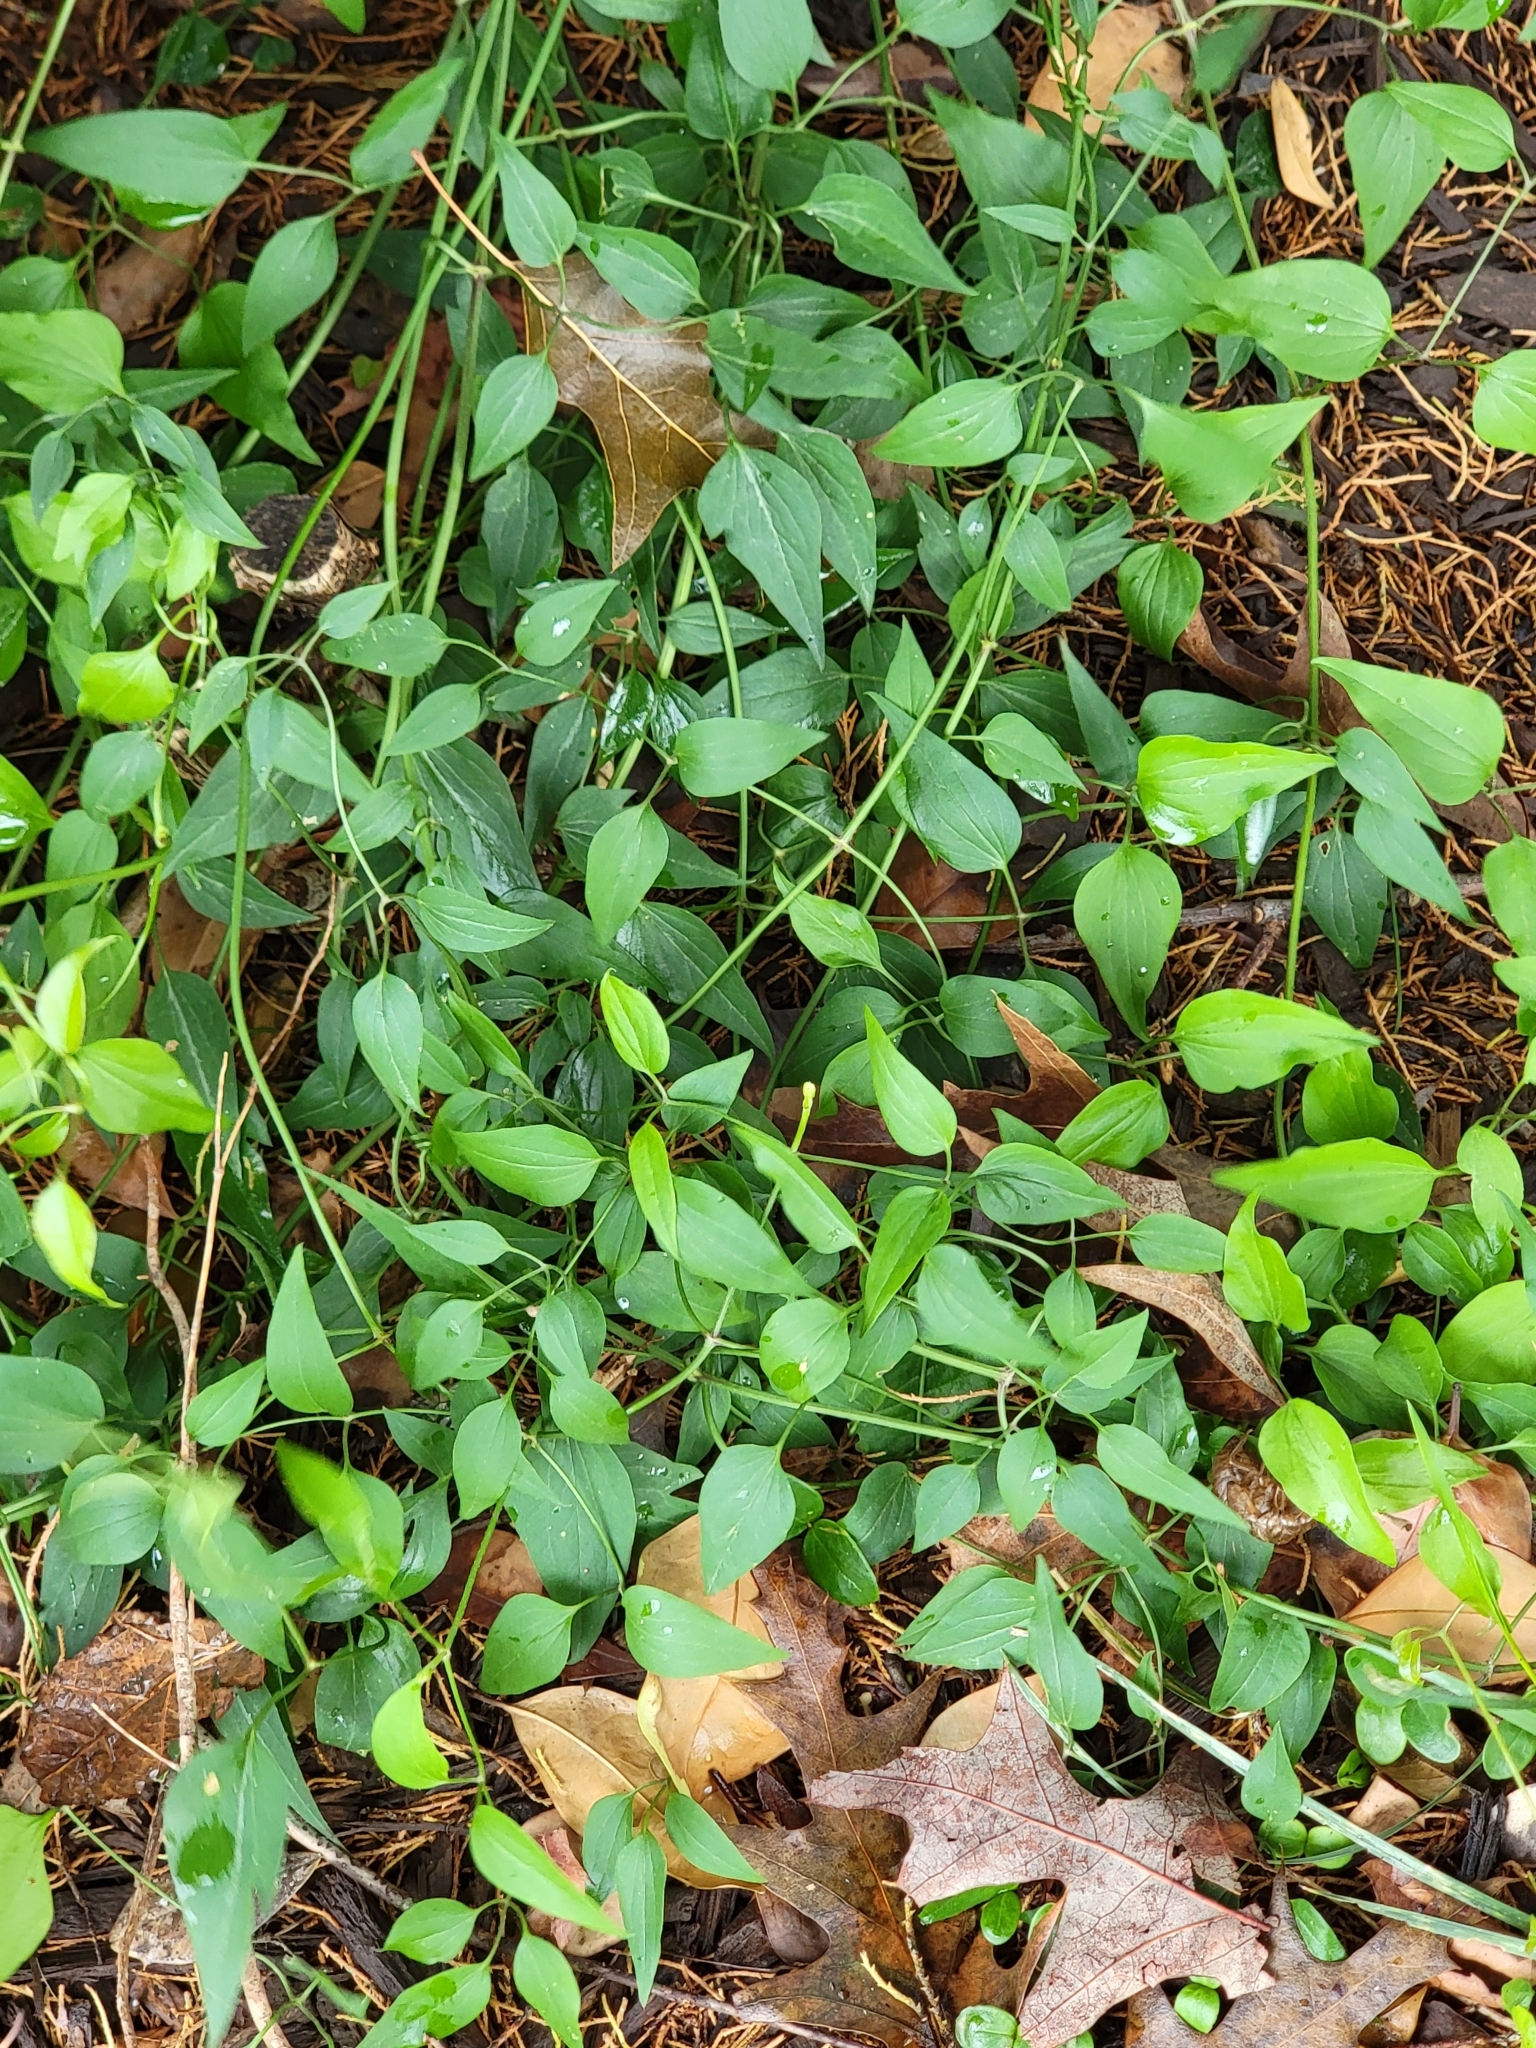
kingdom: Plantae
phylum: Tracheophyta
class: Magnoliopsida
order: Ranunculales
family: Ranunculaceae
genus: Clematis
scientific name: Clematis terniflora
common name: Sweet autumn clematis
